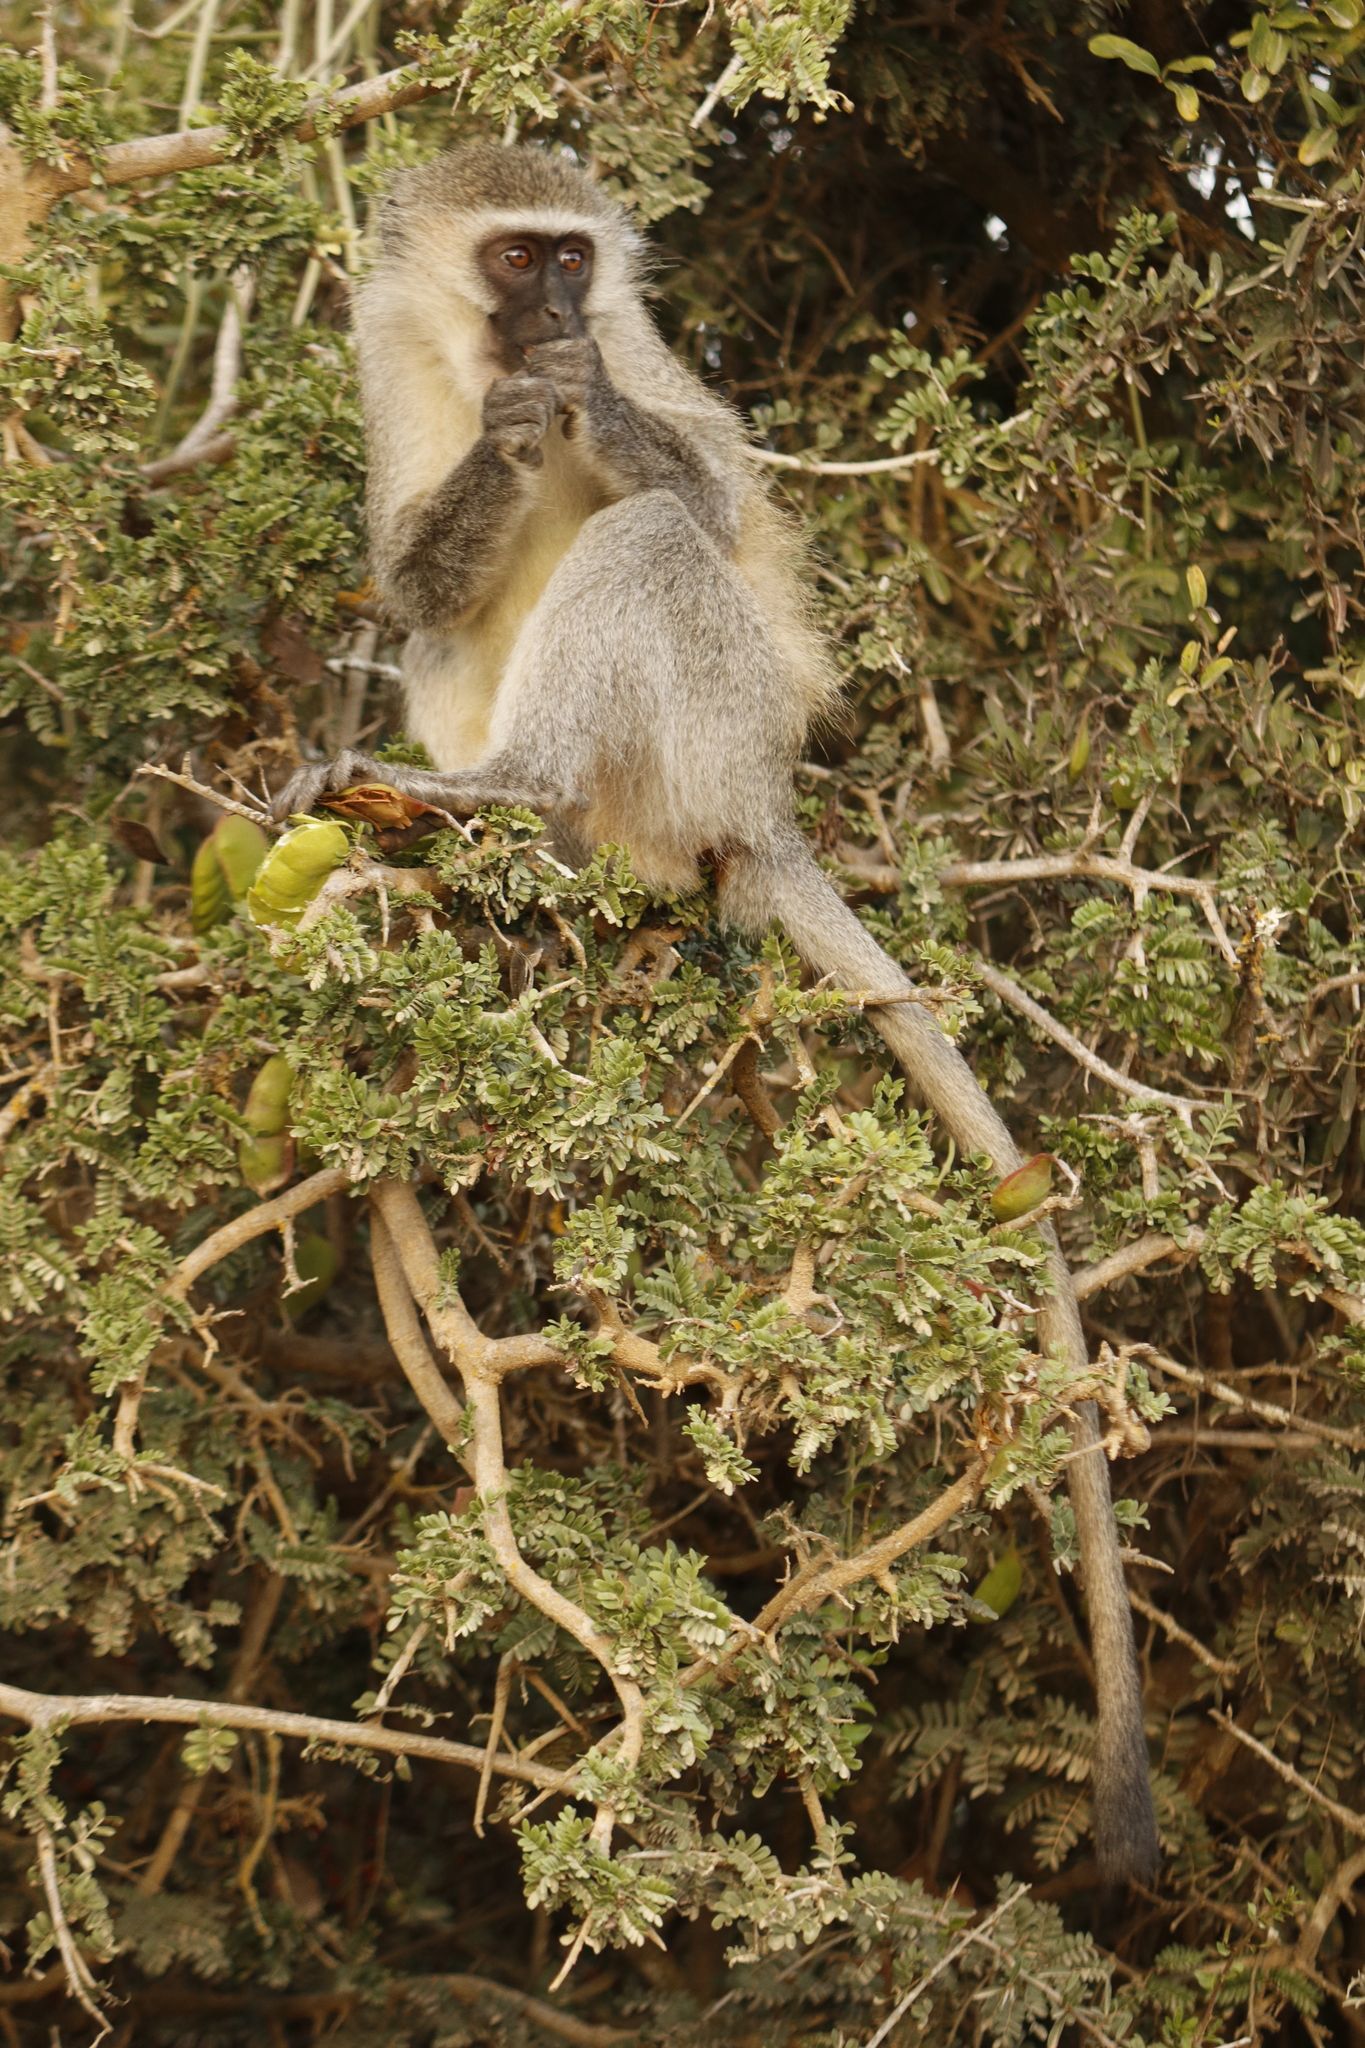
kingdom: Animalia
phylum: Chordata
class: Mammalia
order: Primates
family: Cercopithecidae
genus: Chlorocebus
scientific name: Chlorocebus pygerythrus
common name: Vervet monkey
